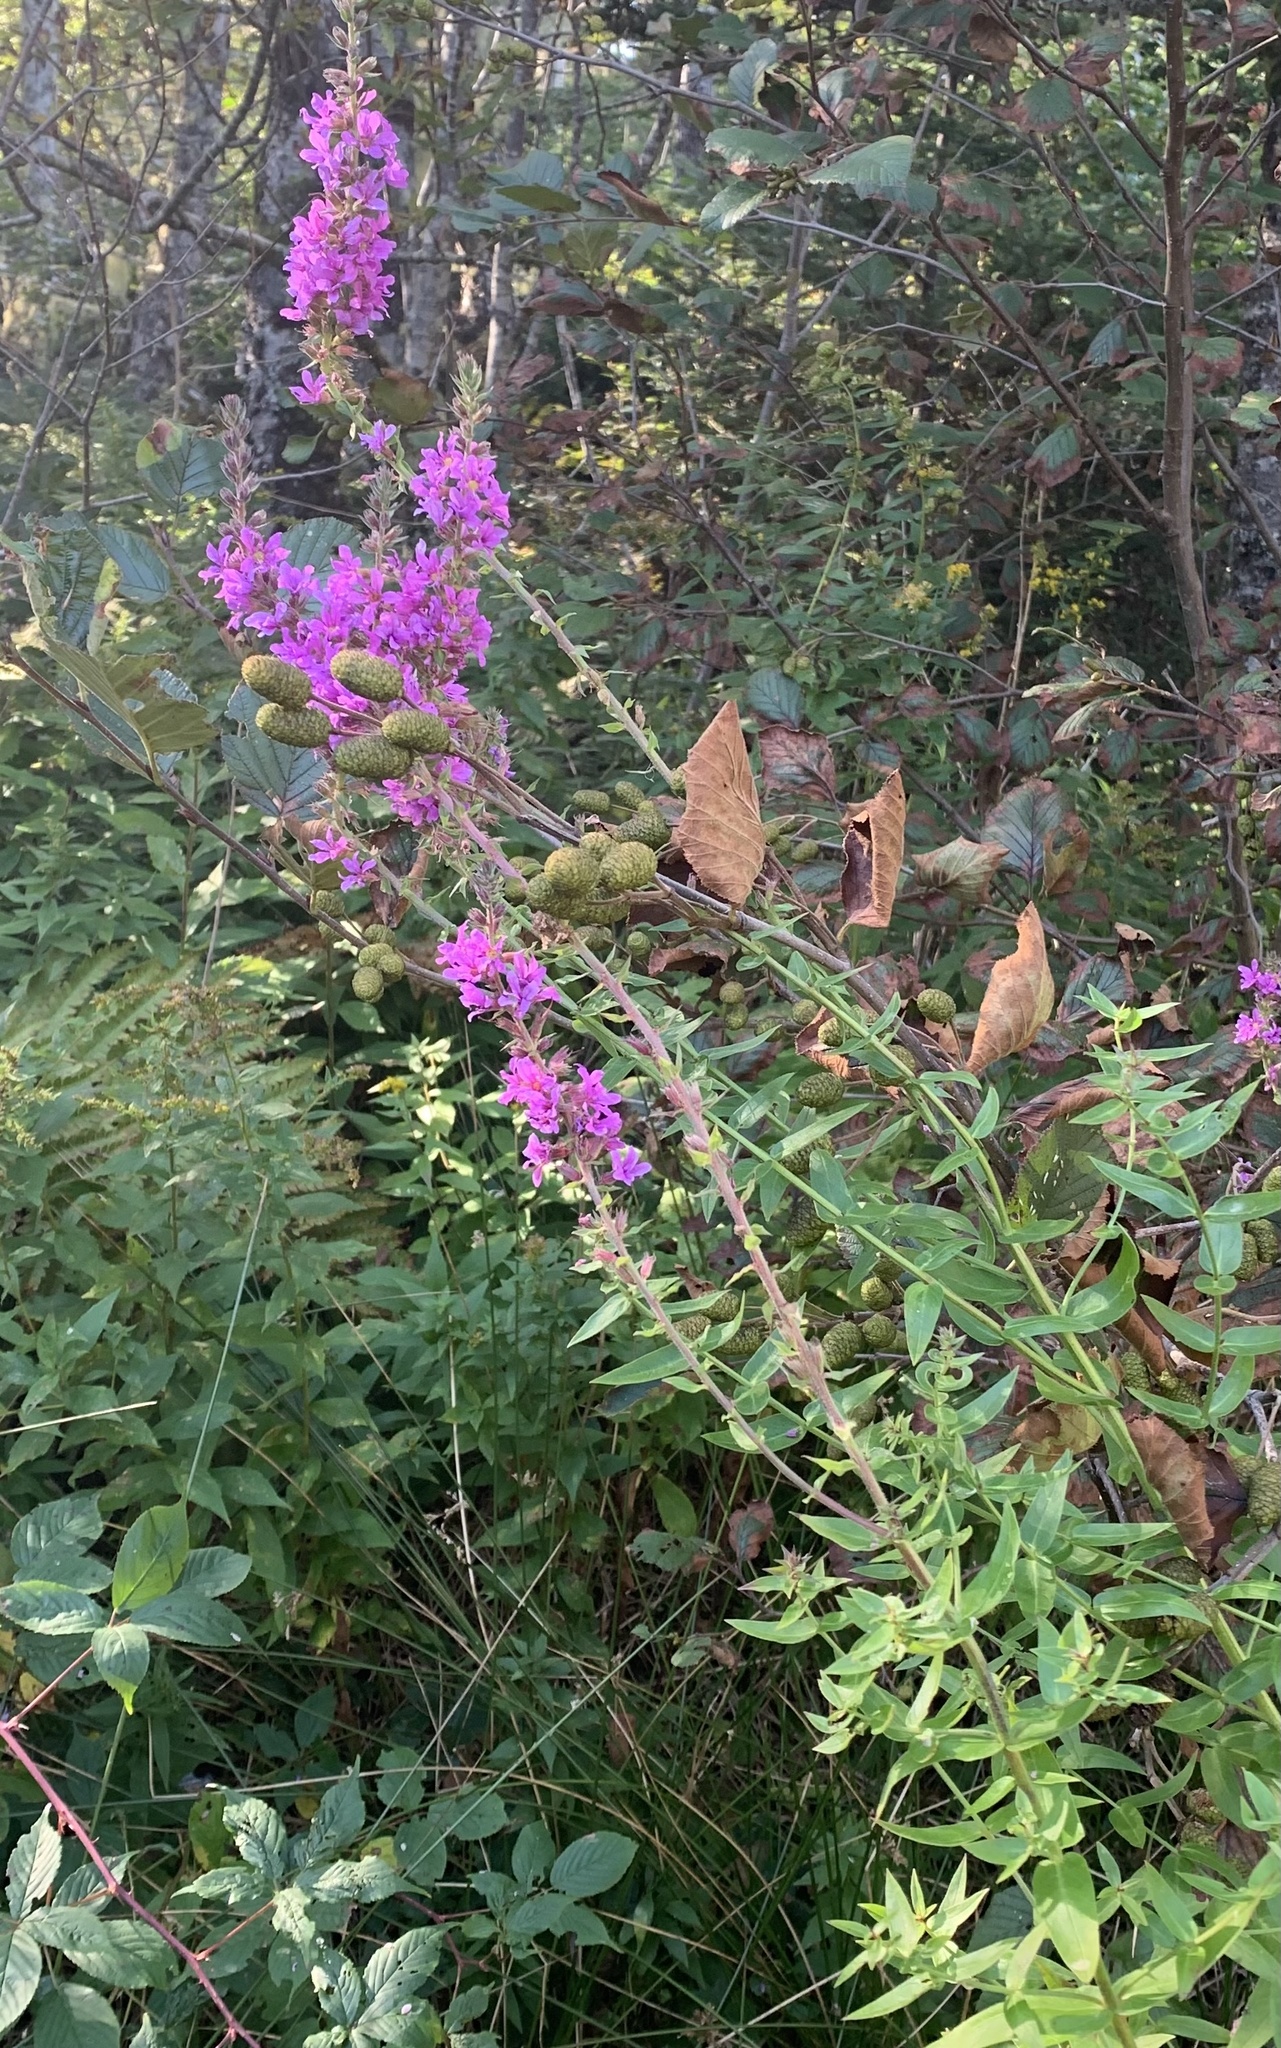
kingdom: Plantae
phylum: Tracheophyta
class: Magnoliopsida
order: Myrtales
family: Lythraceae
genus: Lythrum
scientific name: Lythrum salicaria
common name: Purple loosestrife
